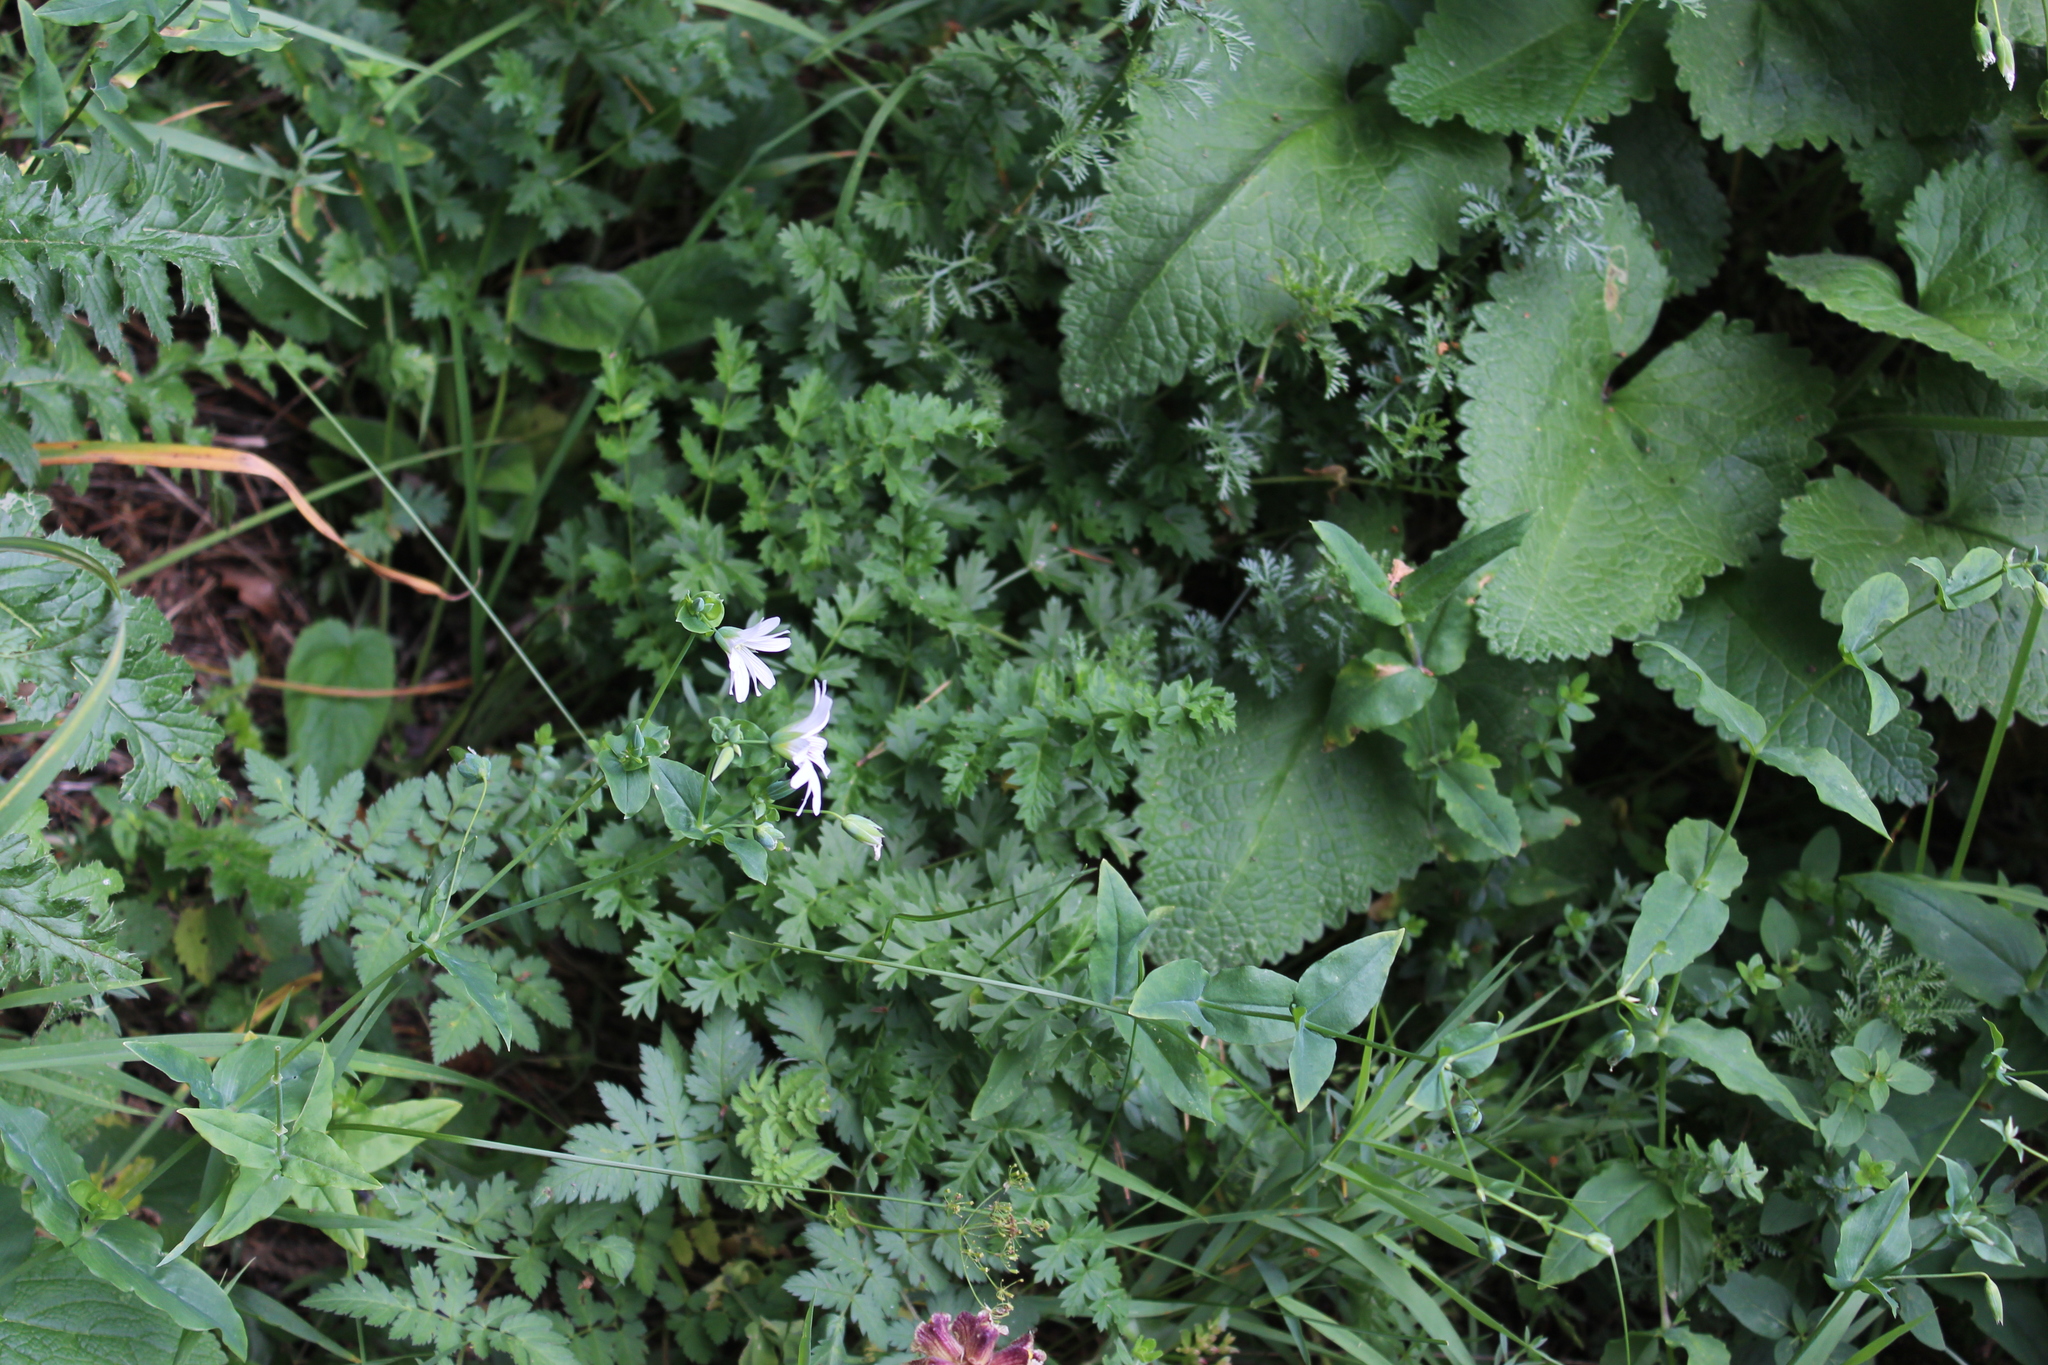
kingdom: Plantae
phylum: Tracheophyta
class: Magnoliopsida
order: Caryophyllales
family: Caryophyllaceae
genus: Cerastium
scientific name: Cerastium davuricum
